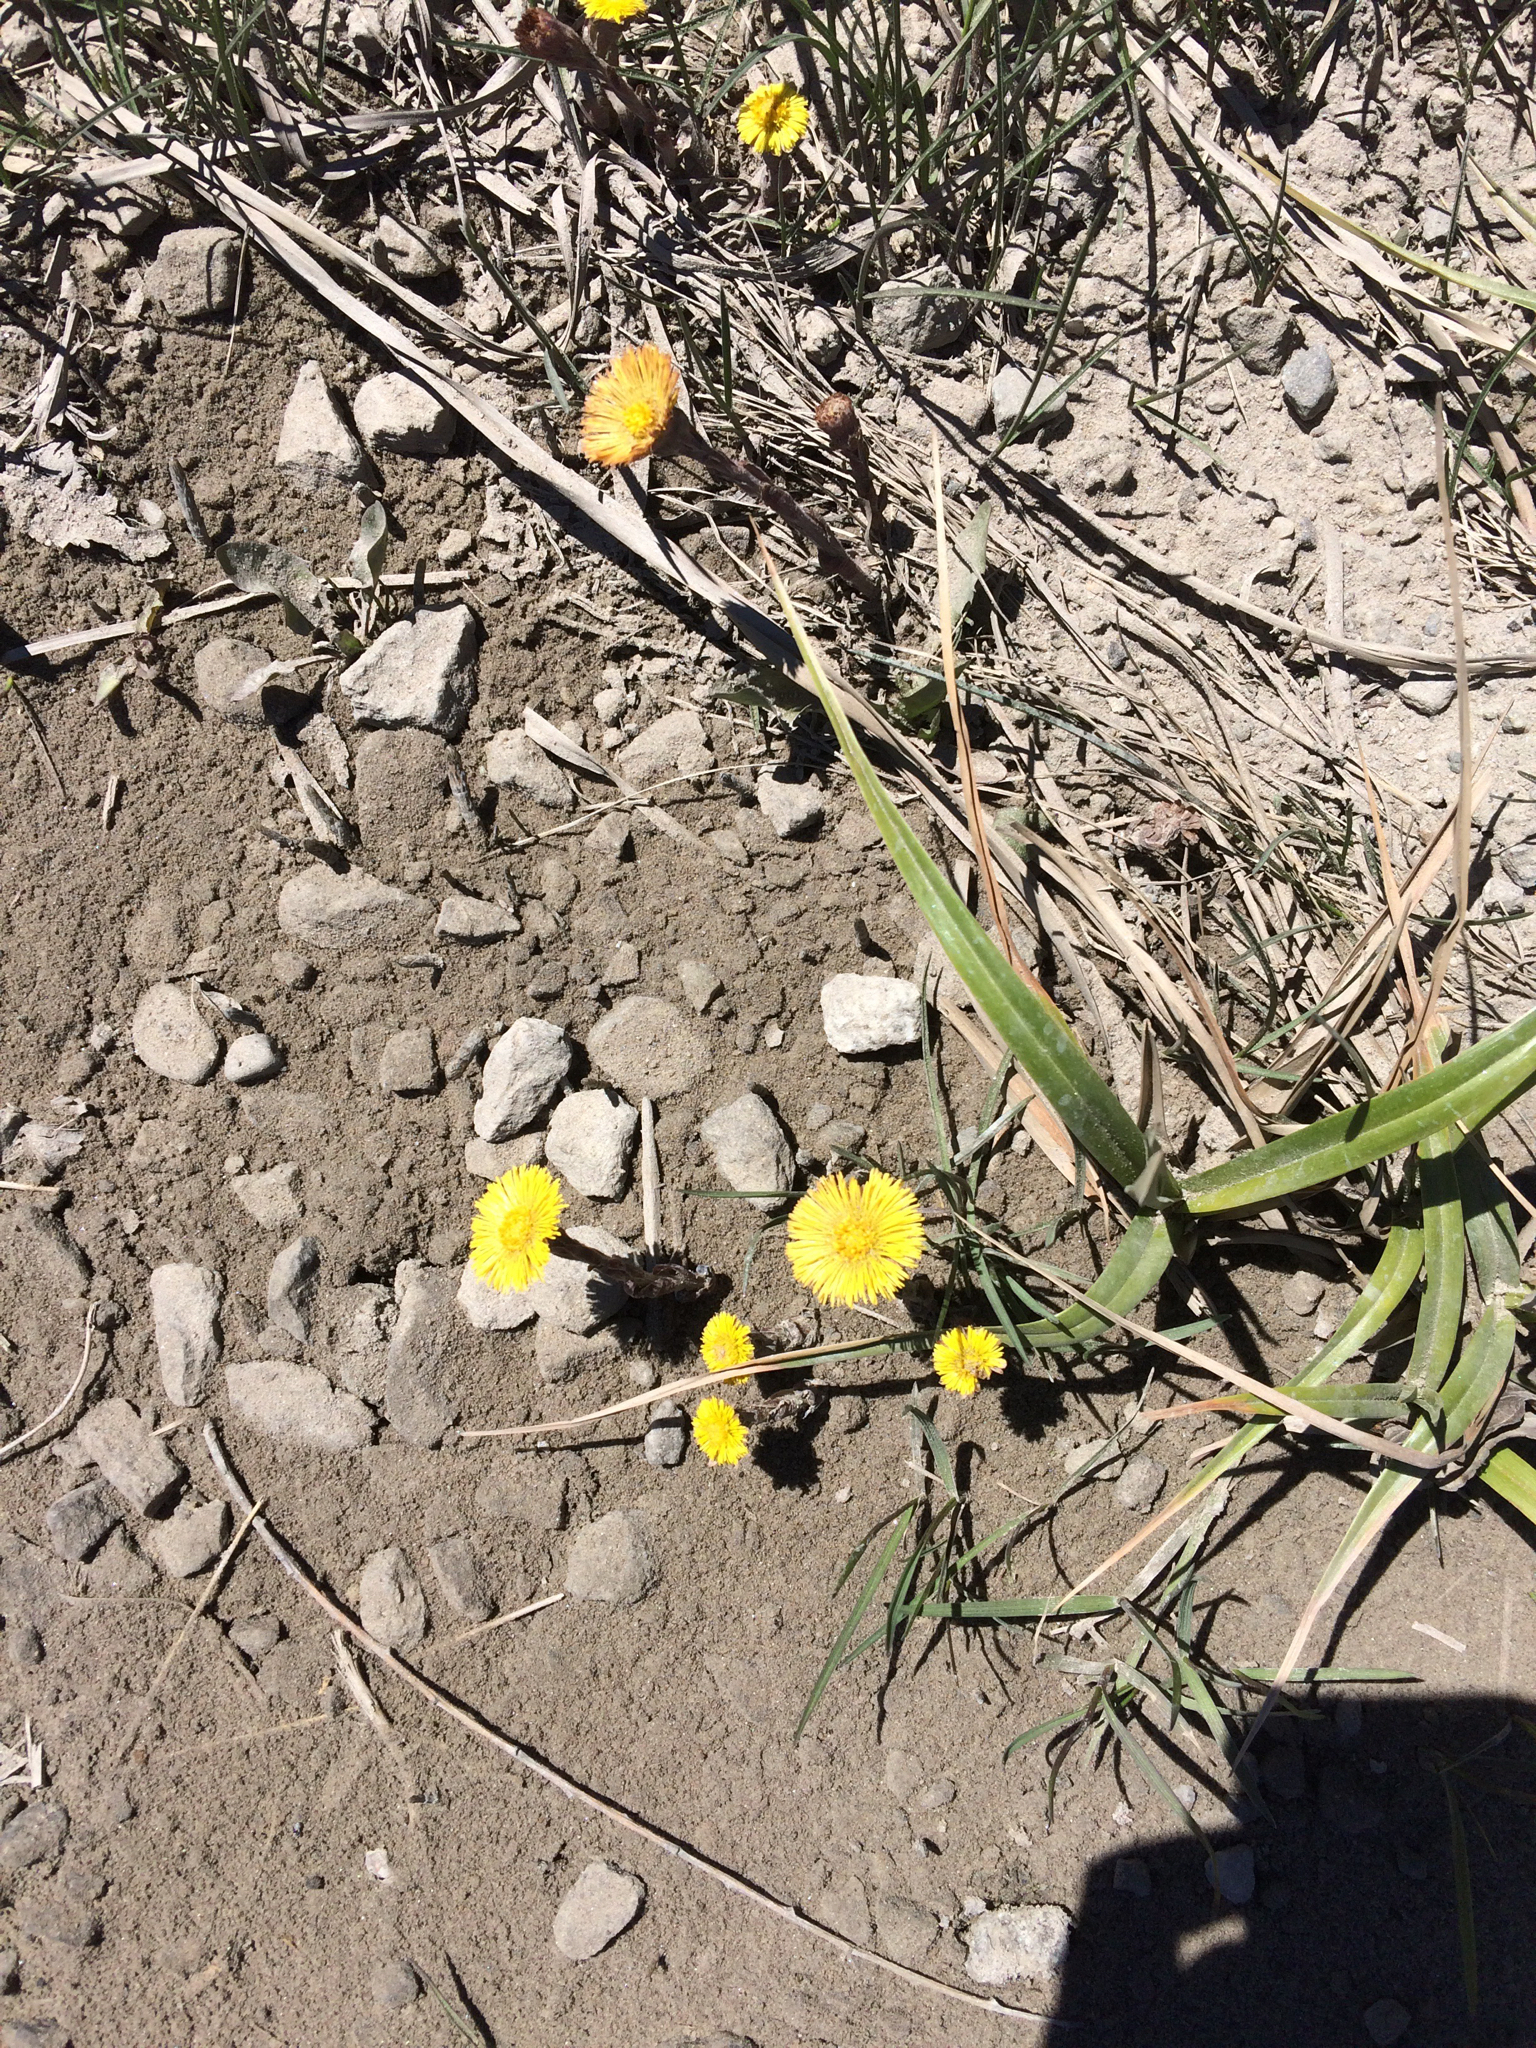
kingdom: Plantae
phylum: Tracheophyta
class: Magnoliopsida
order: Asterales
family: Asteraceae
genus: Tussilago
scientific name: Tussilago farfara
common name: Coltsfoot
